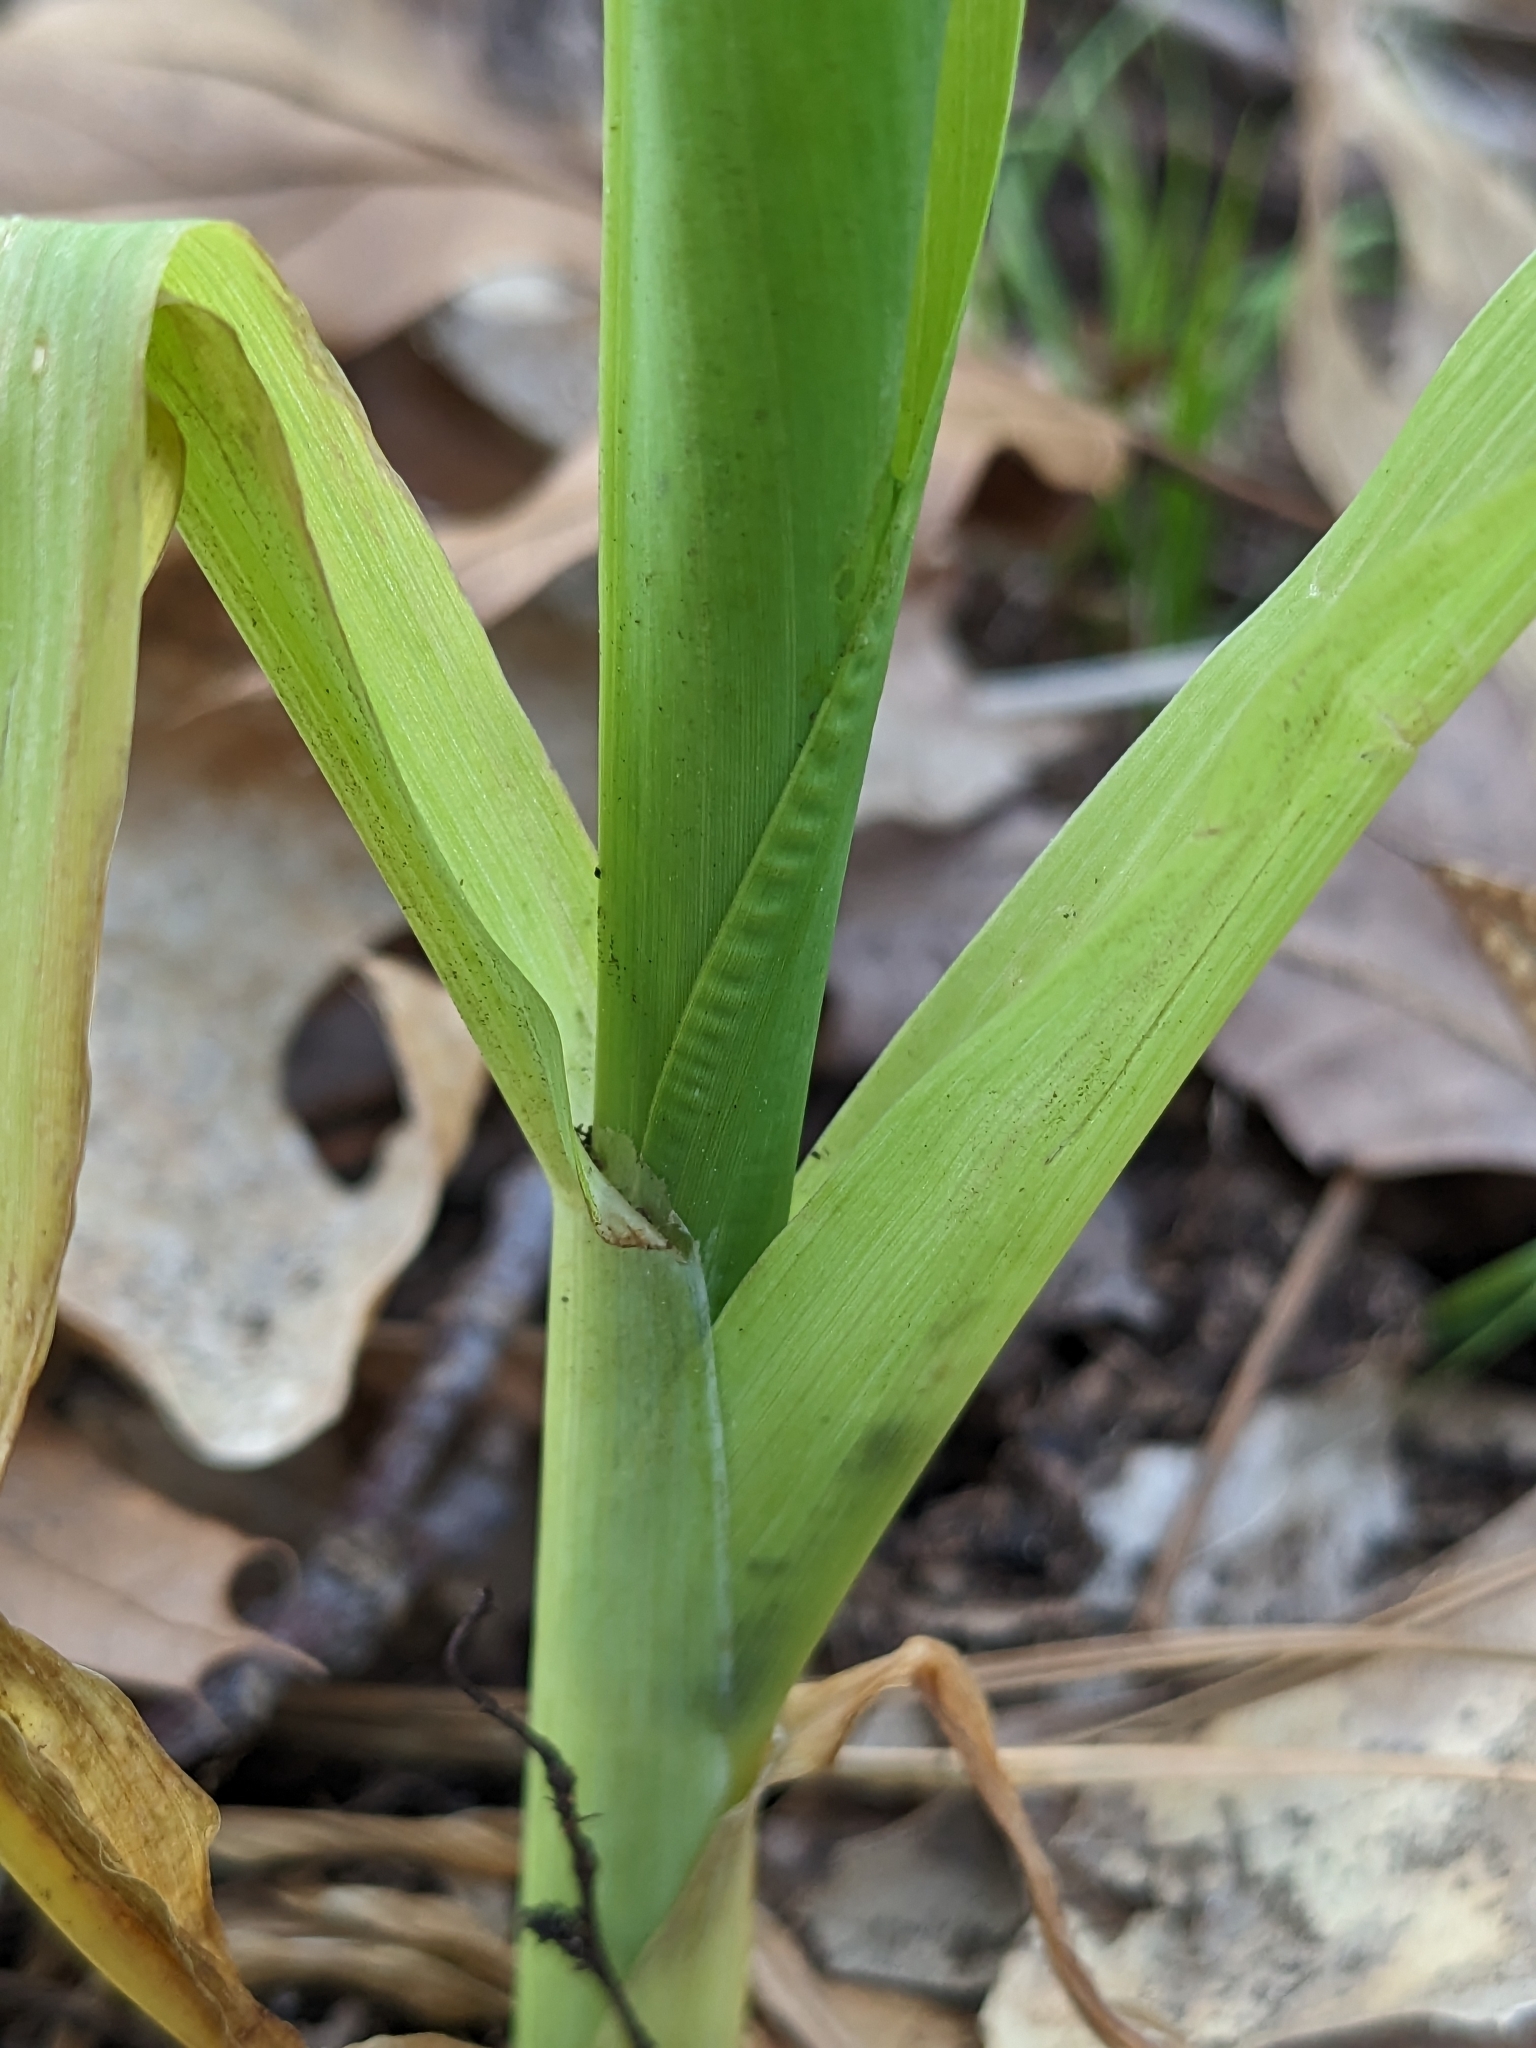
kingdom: Plantae
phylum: Tracheophyta
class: Liliopsida
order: Poales
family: Poaceae
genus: Zea
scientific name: Zea mays
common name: Maize
